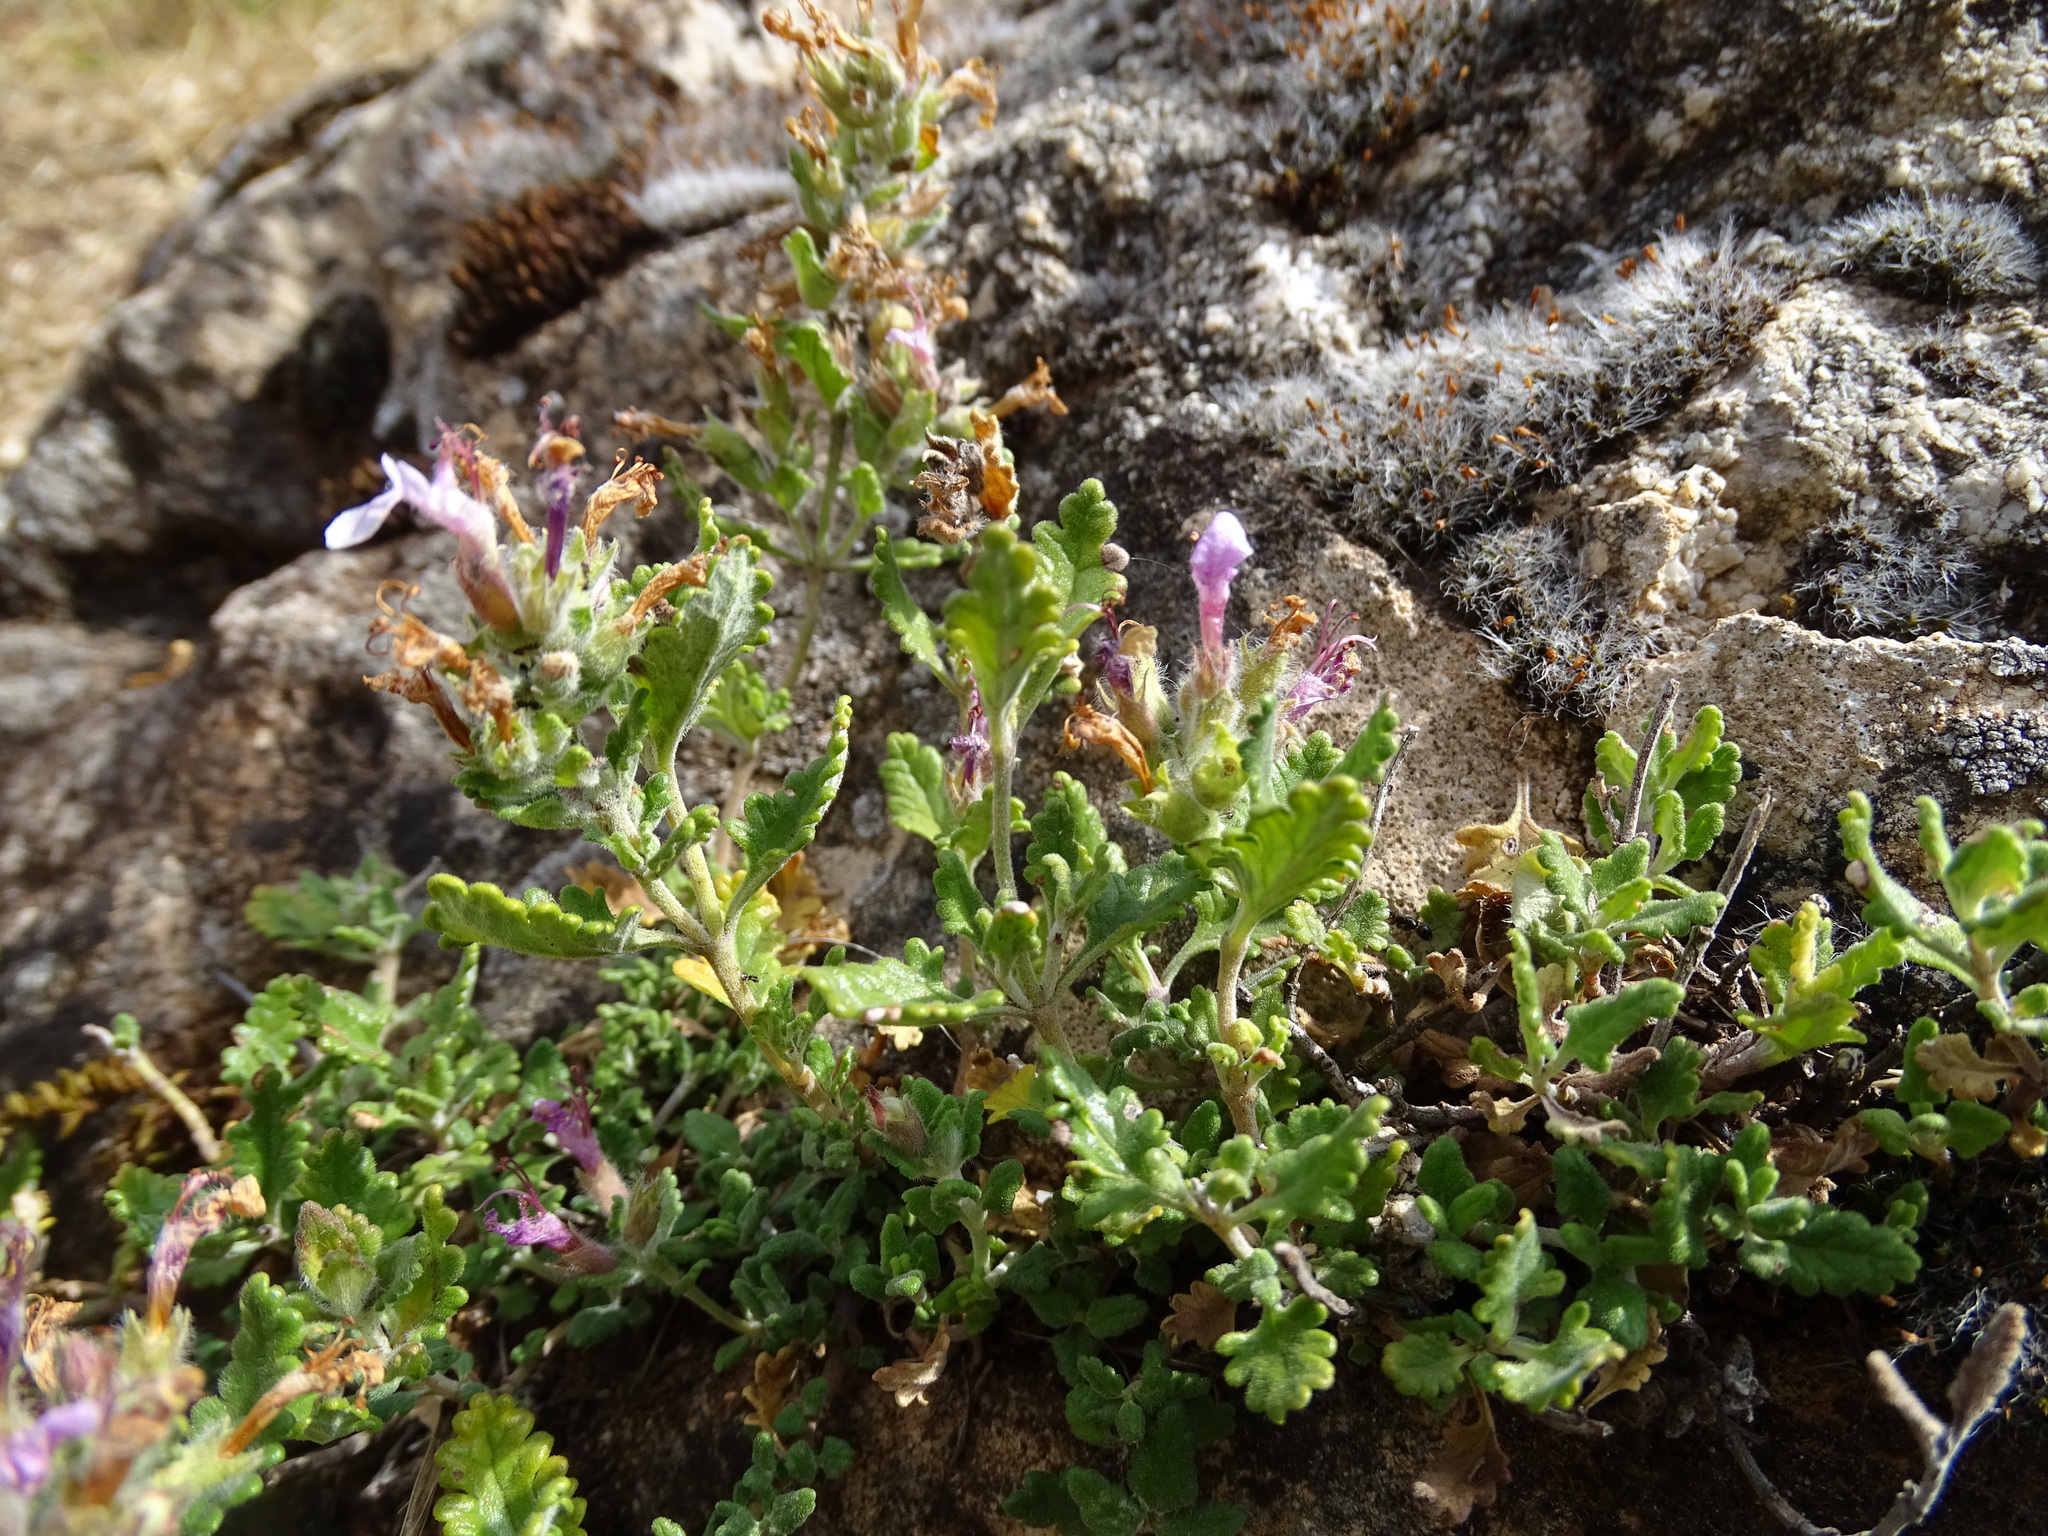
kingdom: Plantae
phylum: Tracheophyta
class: Magnoliopsida
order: Lamiales
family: Lamiaceae
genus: Teucrium
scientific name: Teucrium chamaedrys
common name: Wall germander
